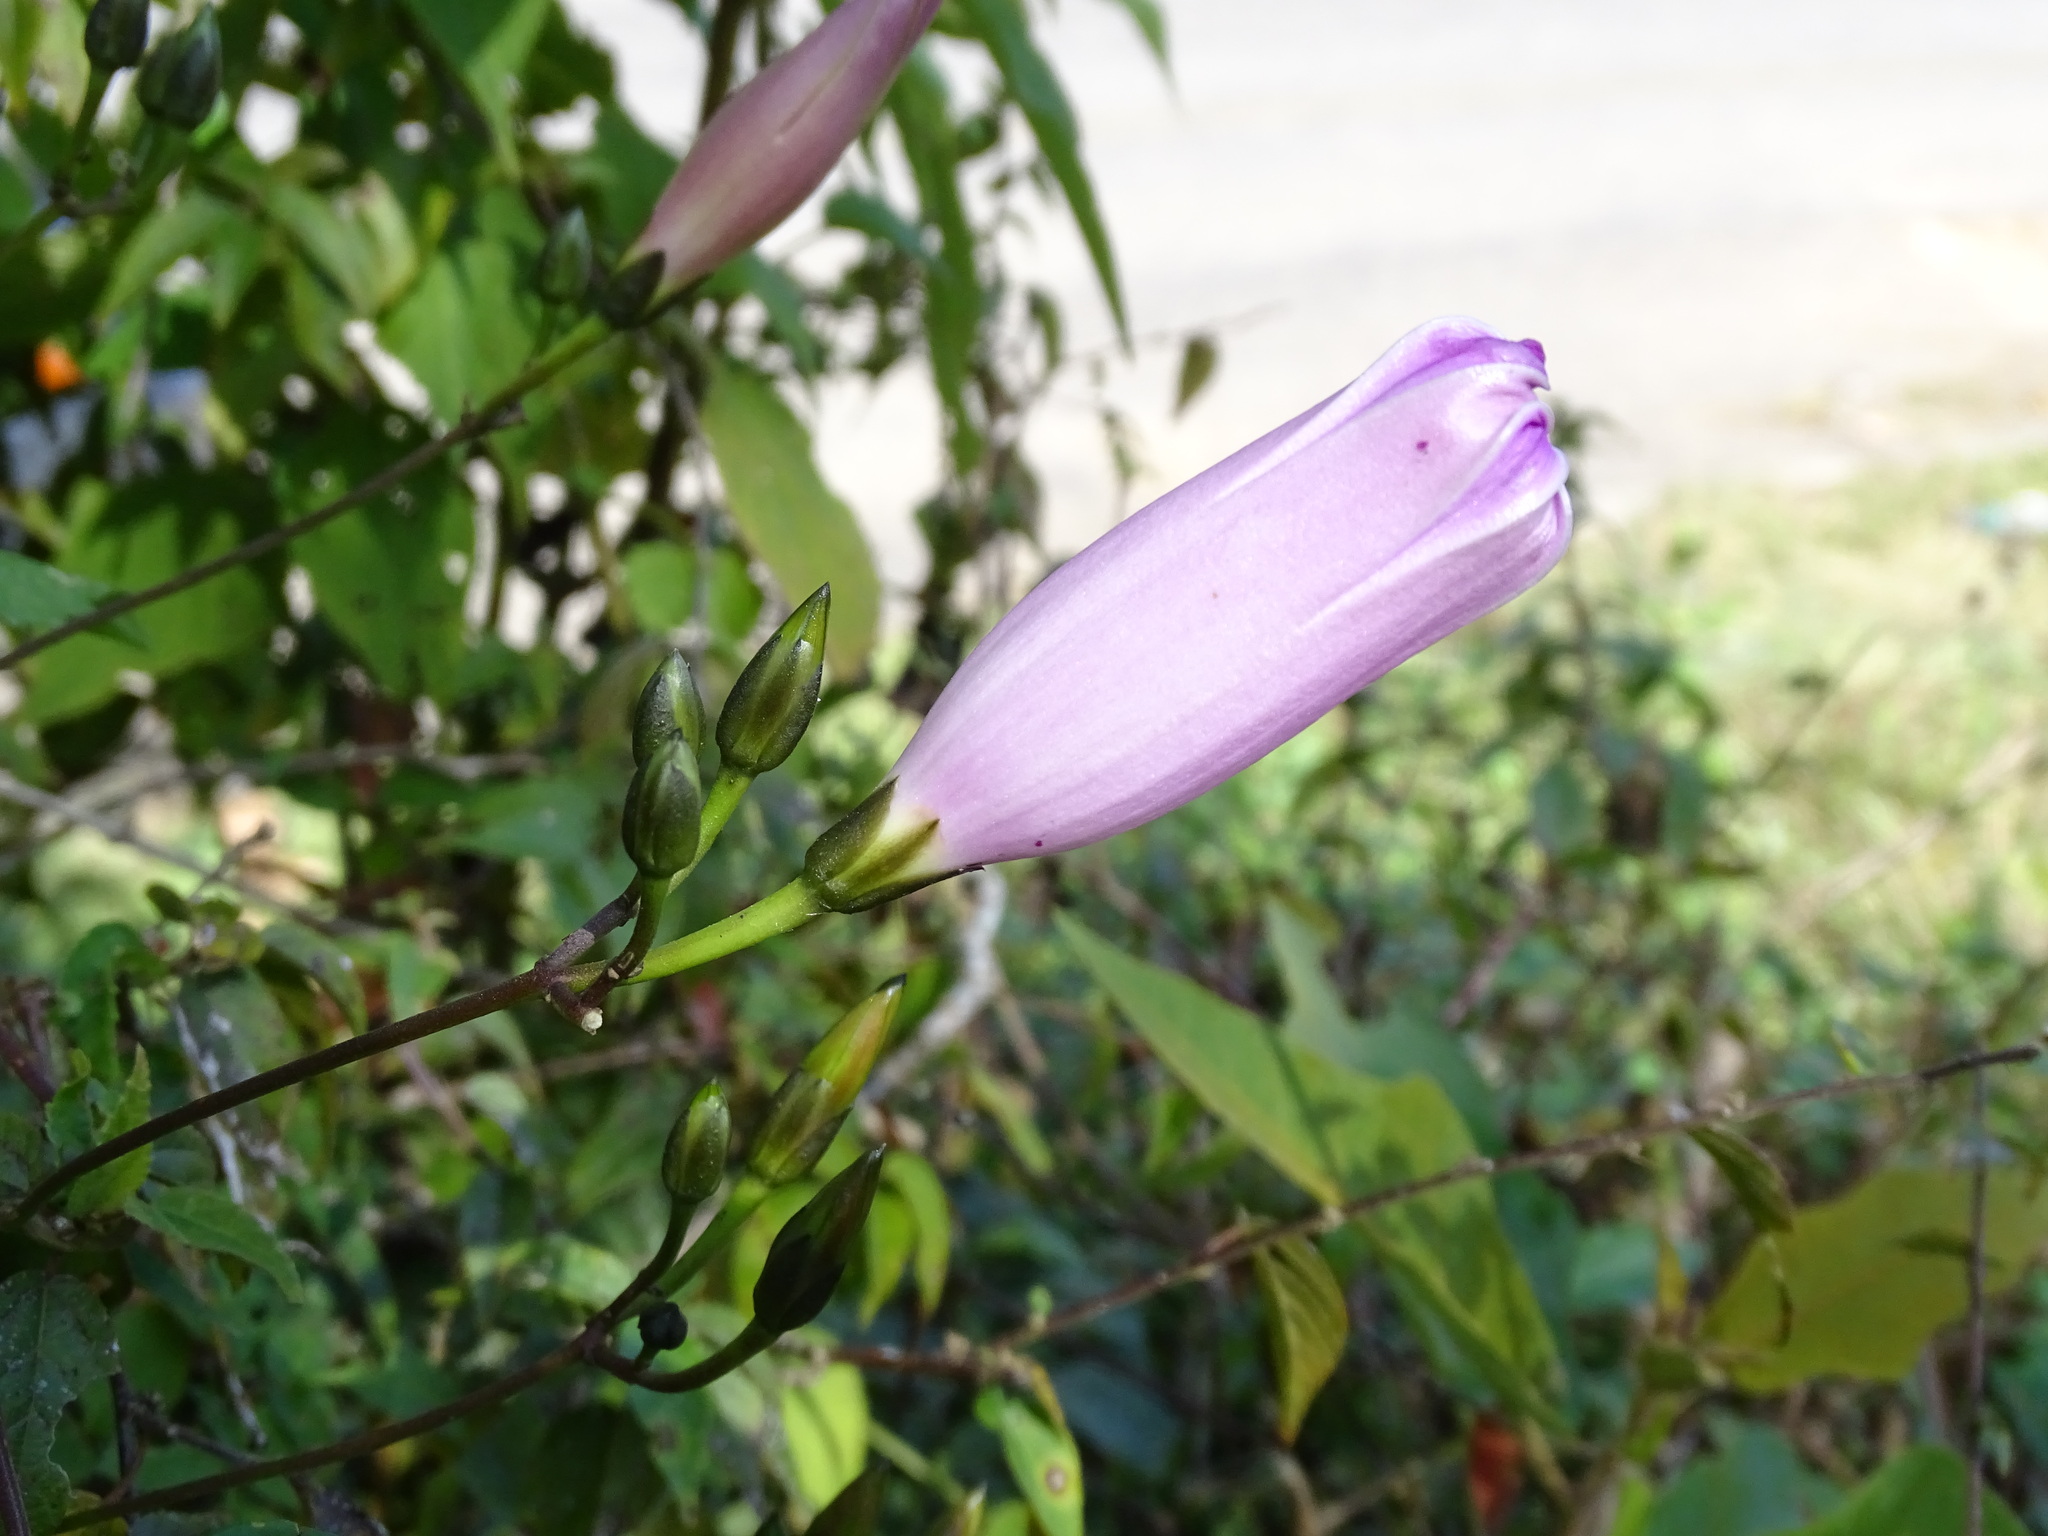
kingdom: Plantae
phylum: Tracheophyta
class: Magnoliopsida
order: Solanales
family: Convolvulaceae
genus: Ipomoea
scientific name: Ipomoea orizabensis
